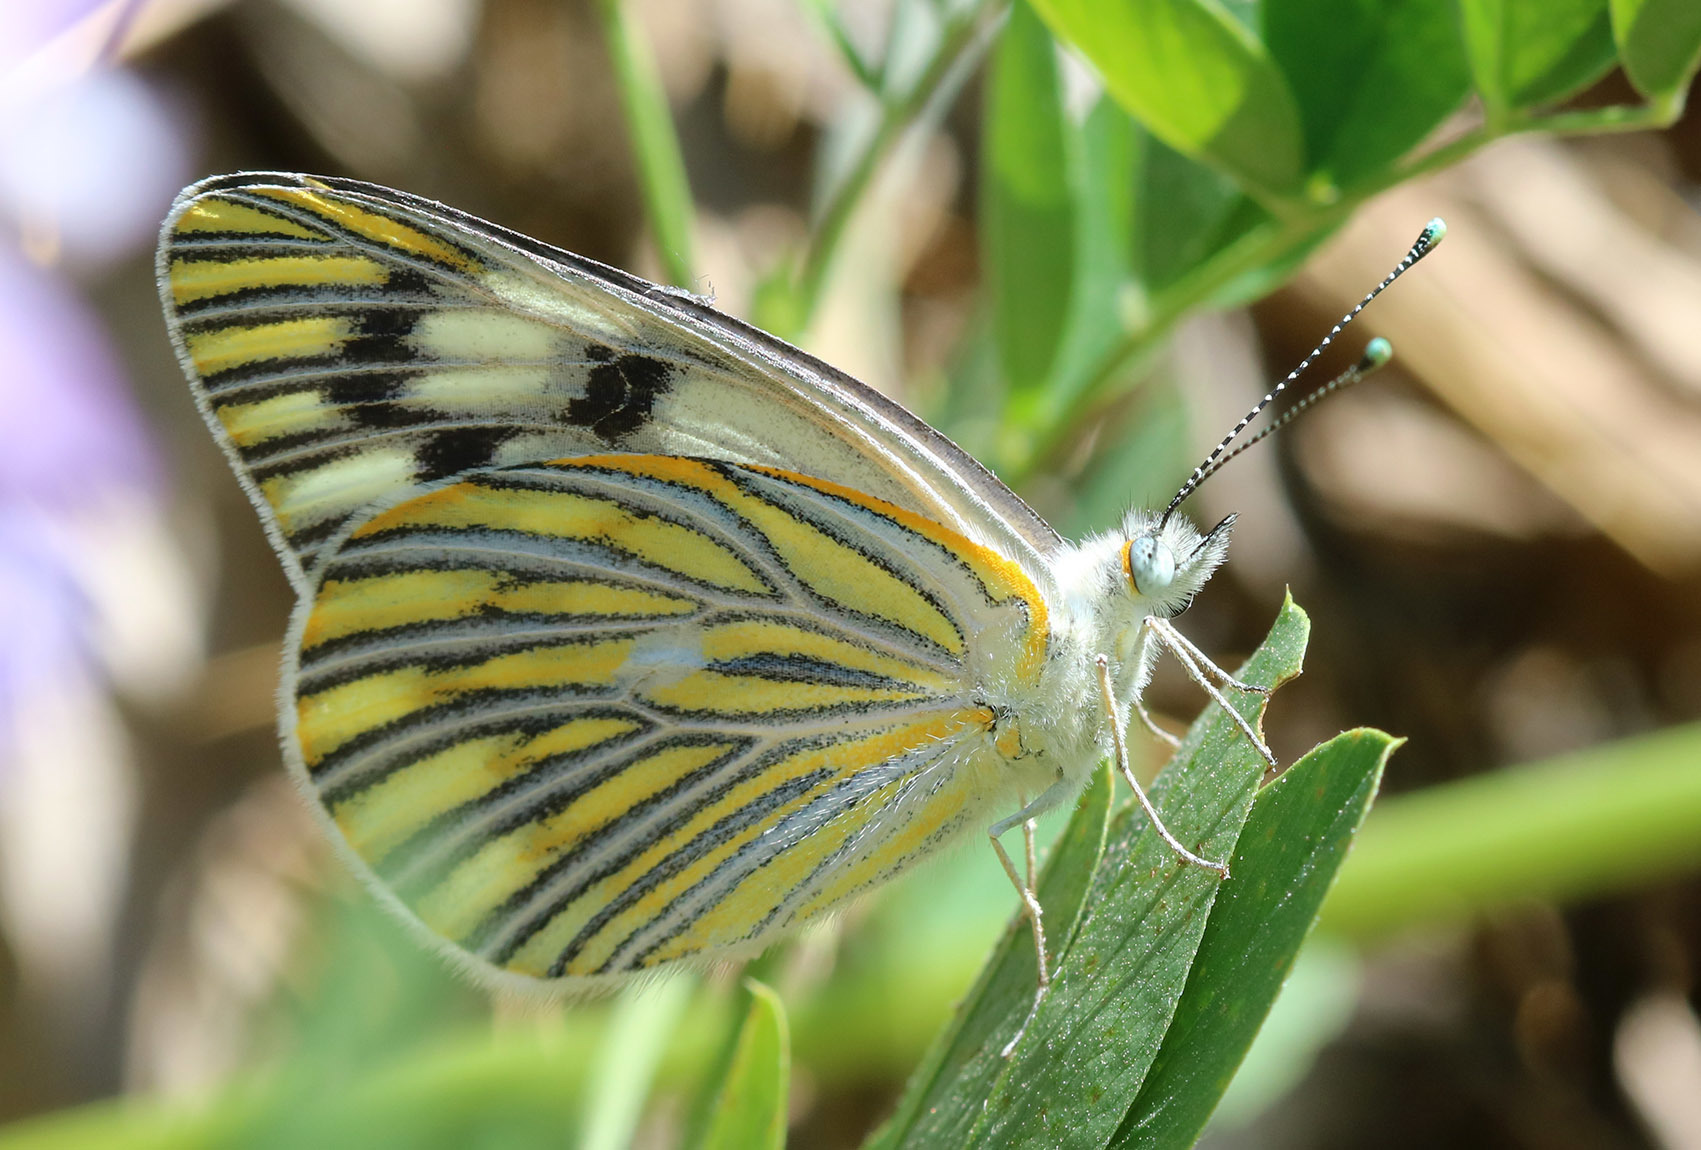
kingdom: Animalia
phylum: Arthropoda
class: Insecta
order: Lepidoptera
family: Pieridae
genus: Tatochila
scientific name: Tatochila autodice
